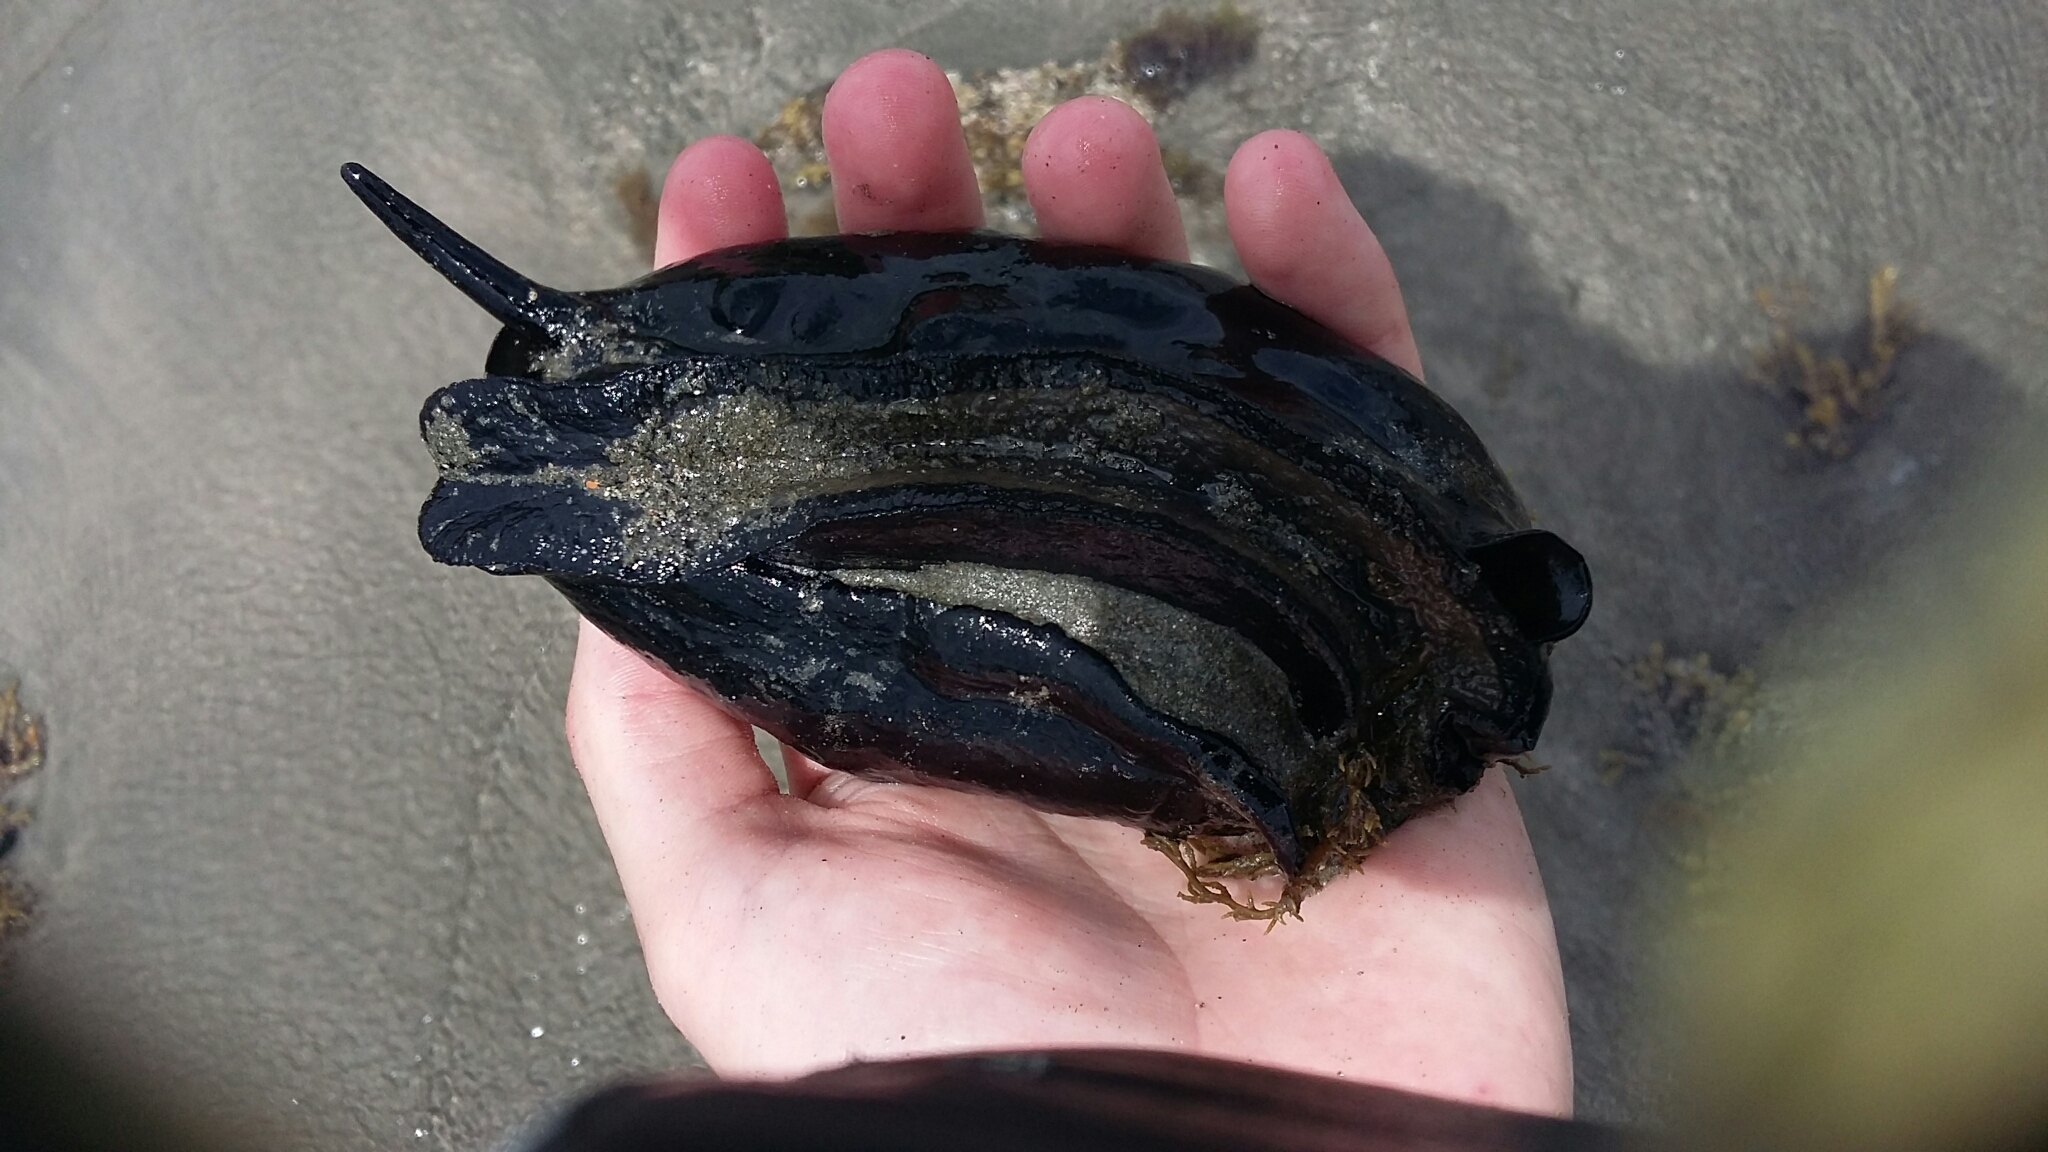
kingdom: Animalia
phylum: Mollusca
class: Gastropoda
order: Lepetellida
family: Fissurellidae
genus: Scutus
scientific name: Scutus breviculus
